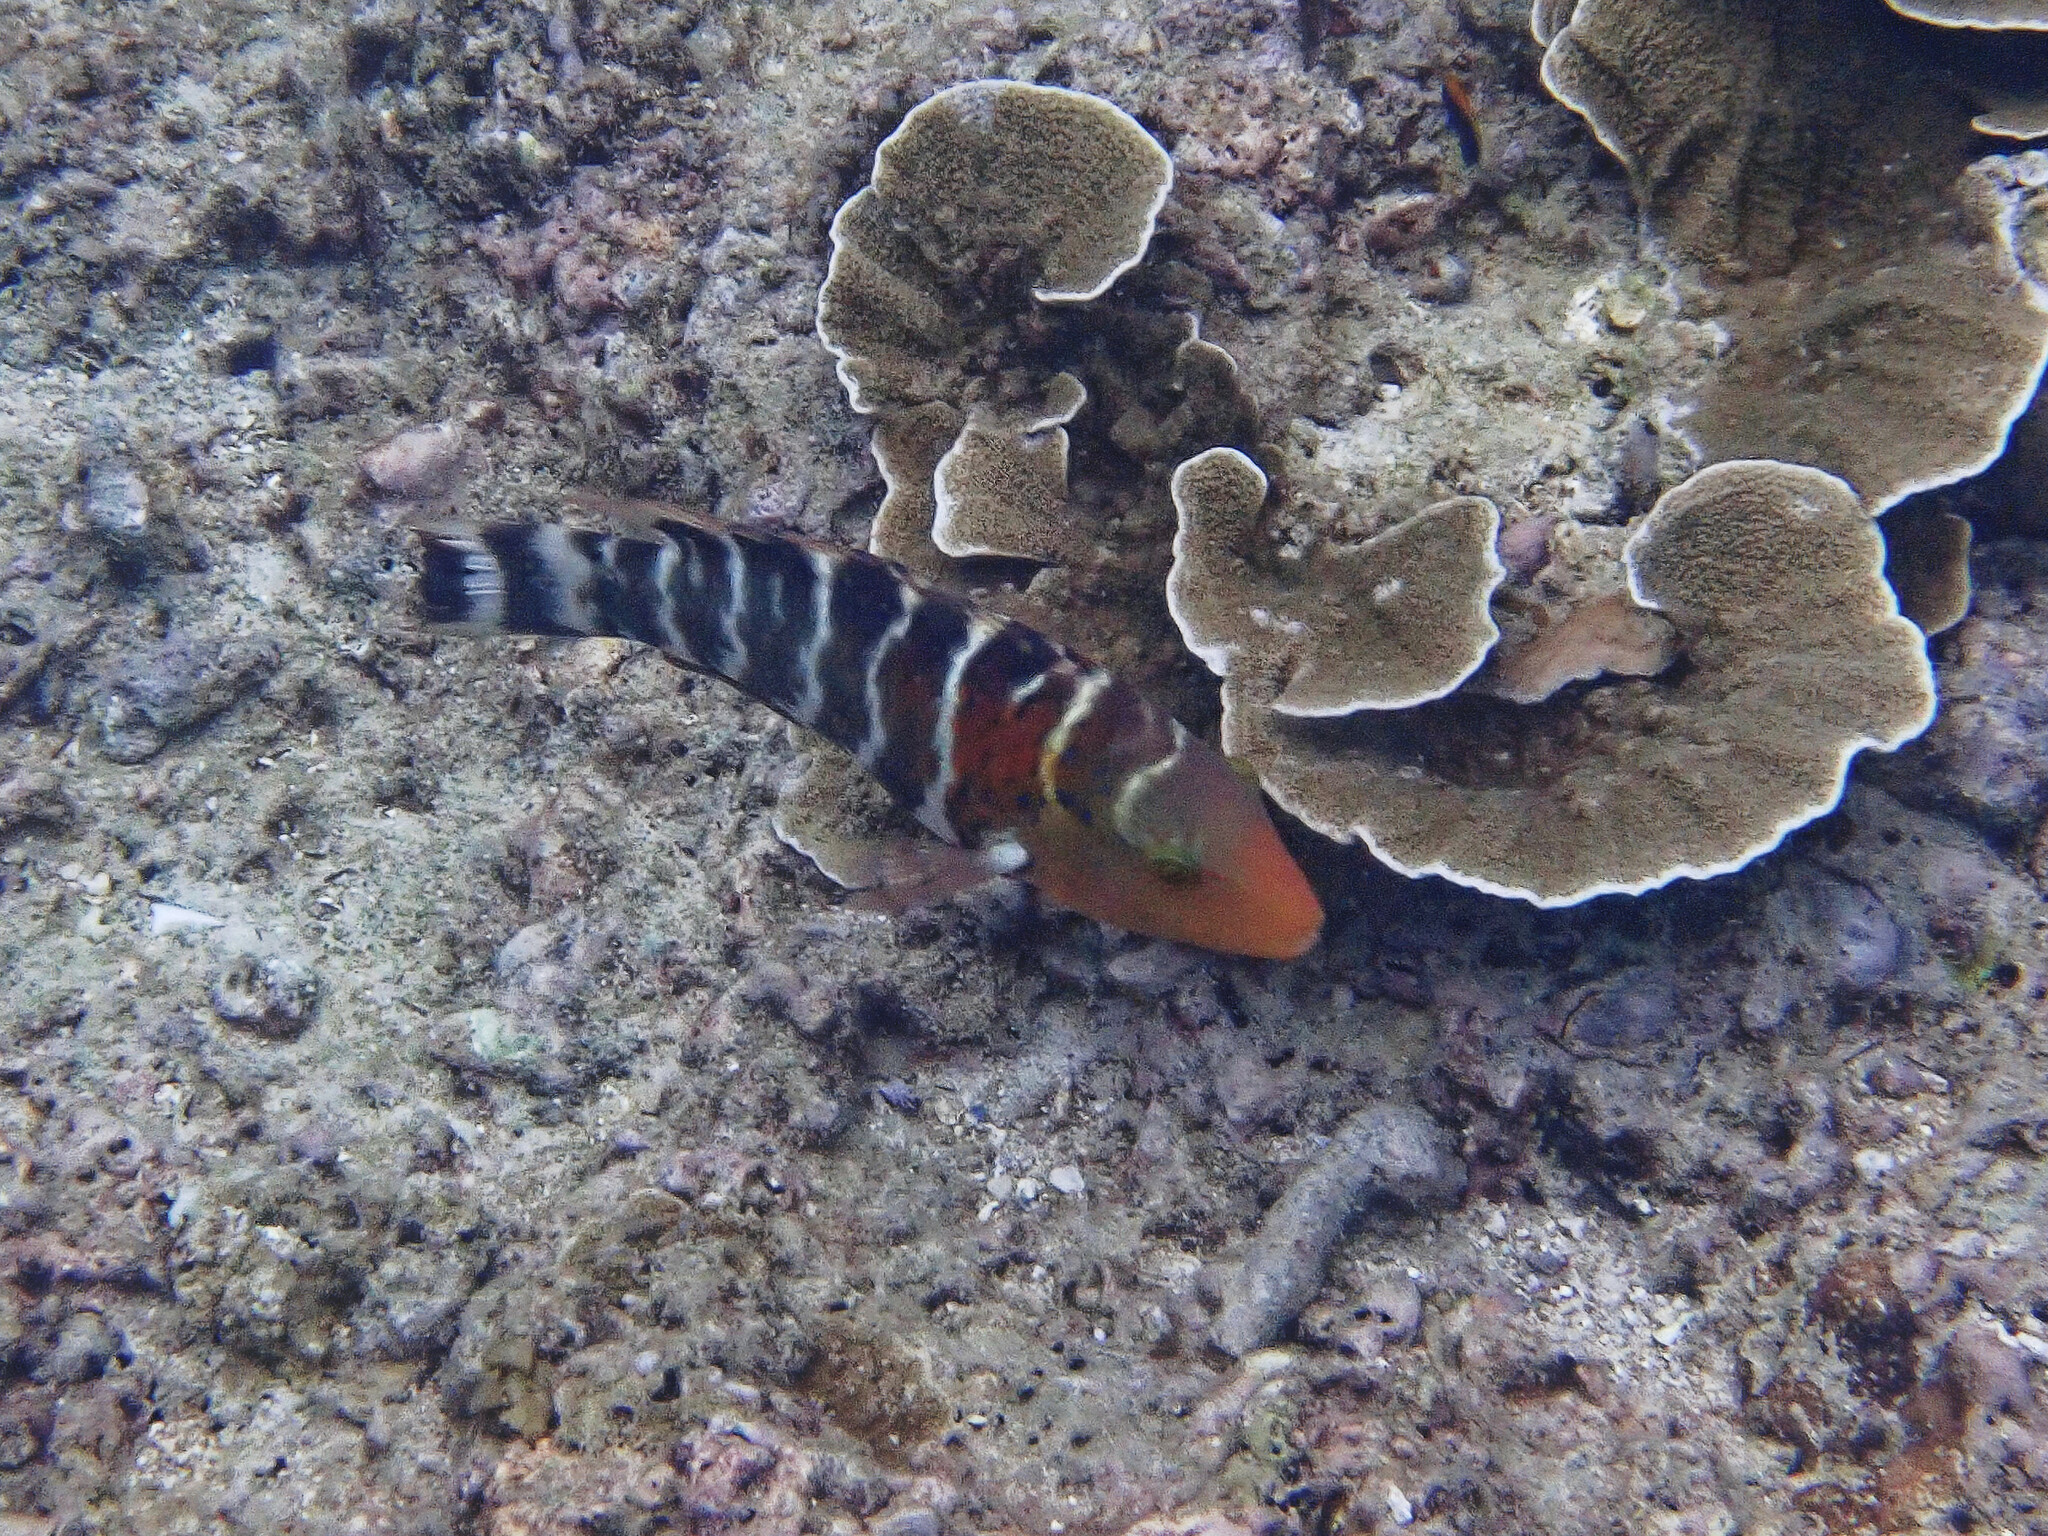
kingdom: Animalia
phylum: Chordata
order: Perciformes
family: Labridae
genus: Cheilinus
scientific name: Cheilinus fasciatus
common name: Red-breasted wrasse
